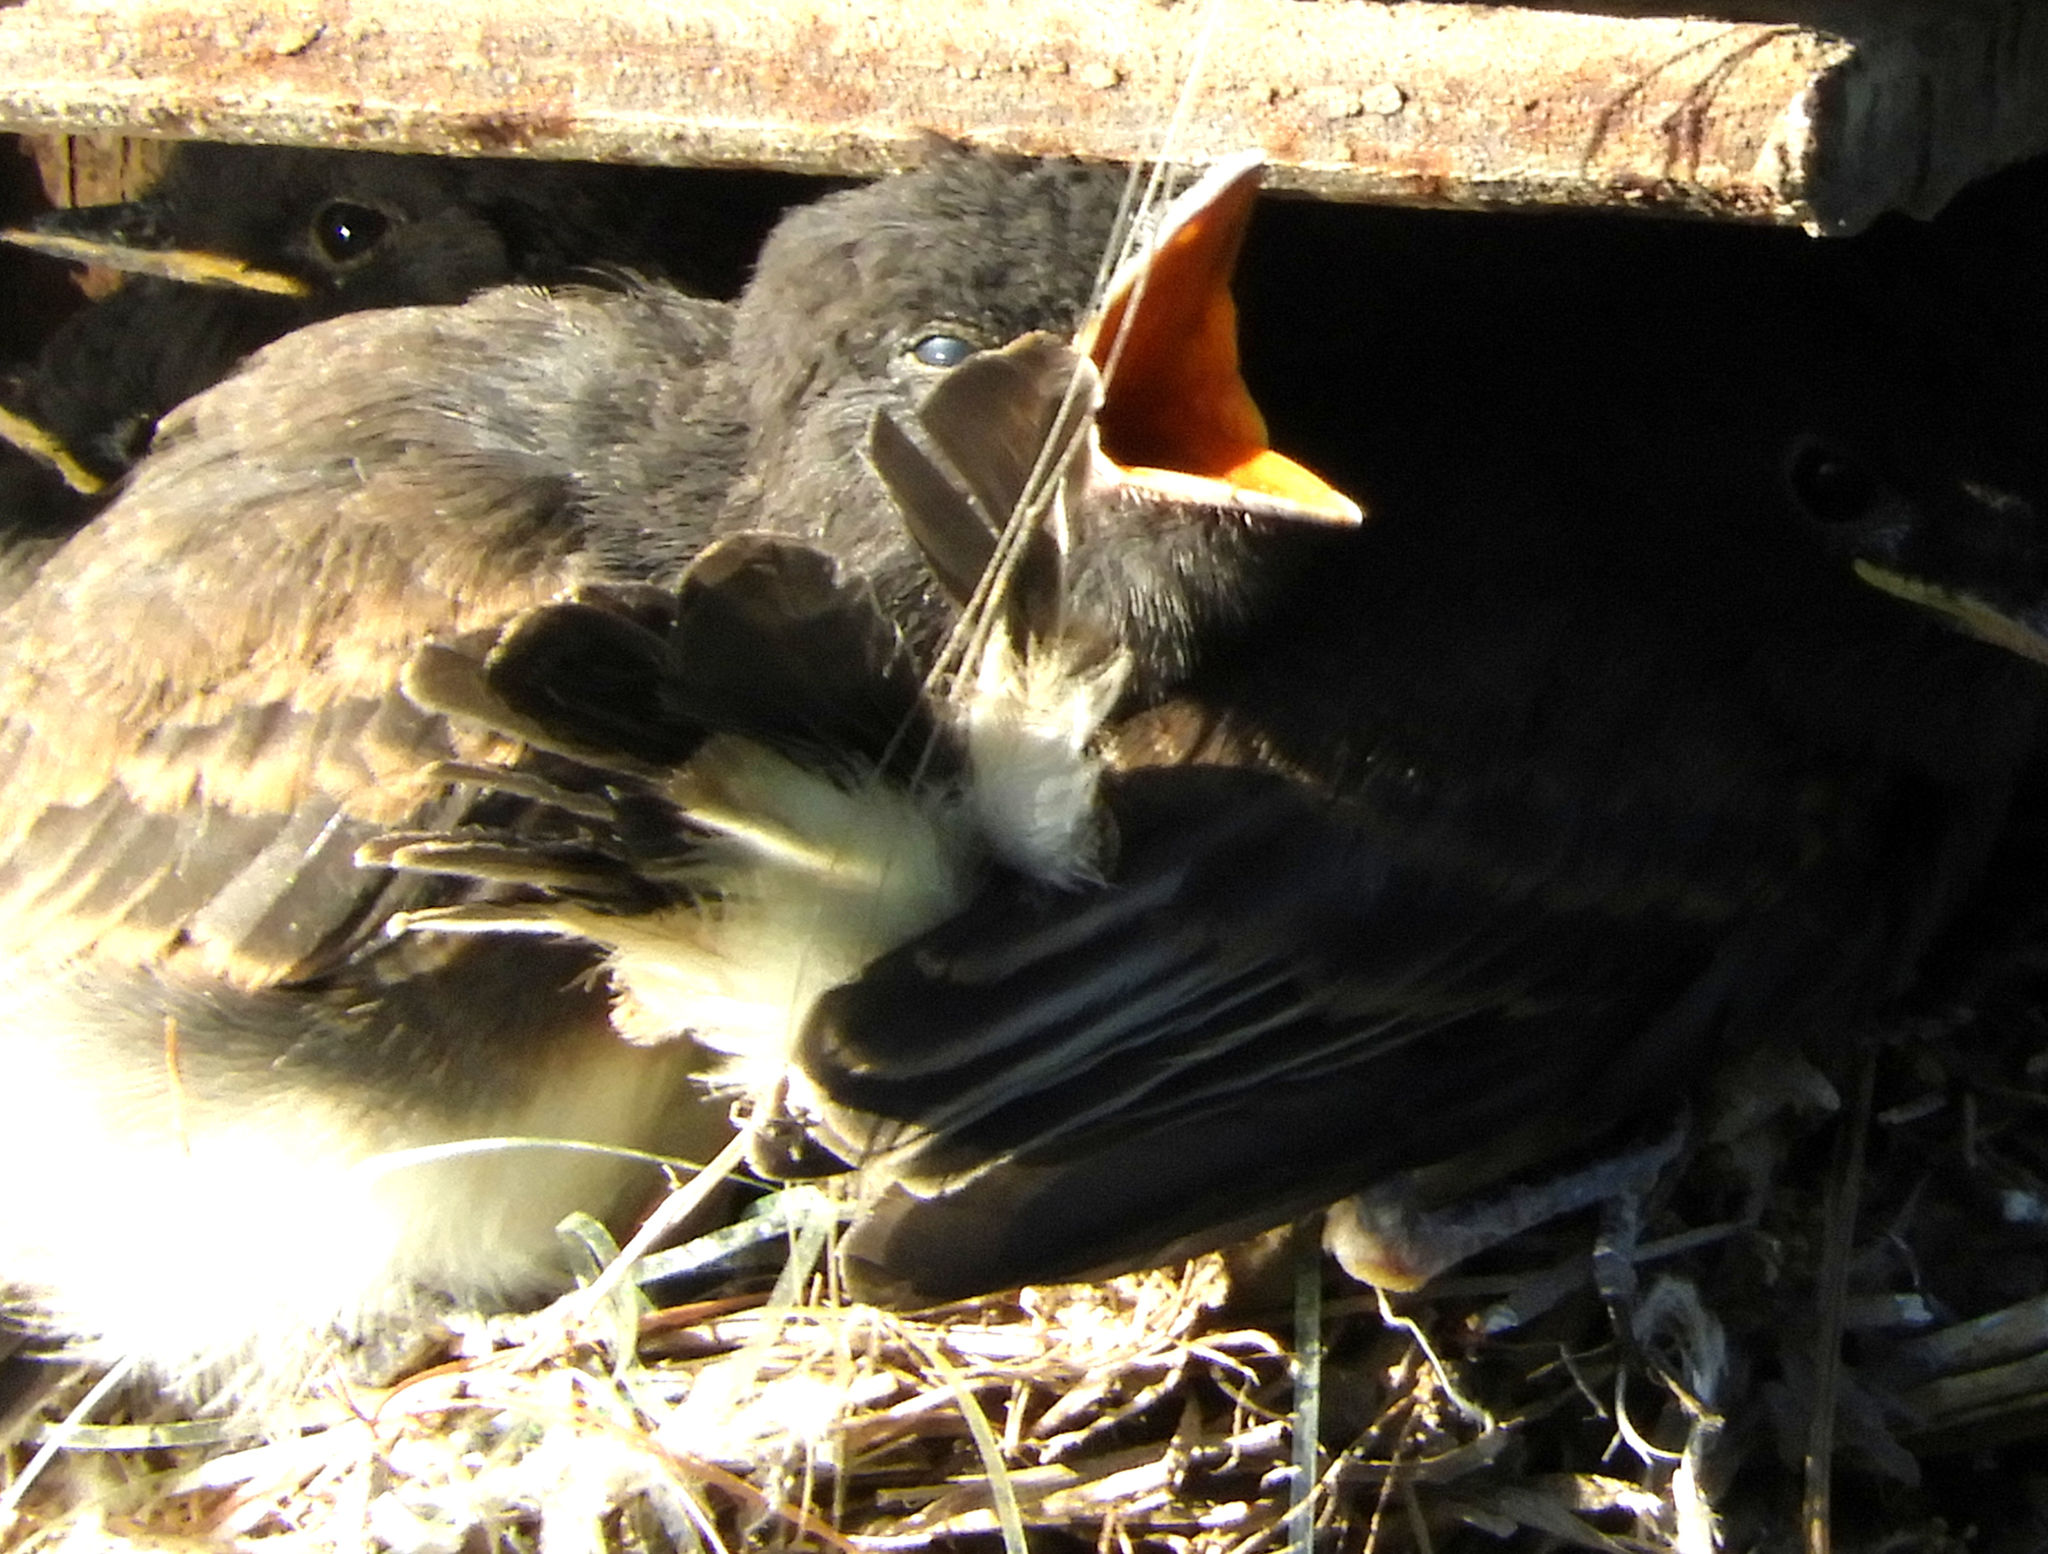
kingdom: Animalia
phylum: Chordata
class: Aves
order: Passeriformes
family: Tyrannidae
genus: Sayornis
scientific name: Sayornis nigricans
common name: Black phoebe
